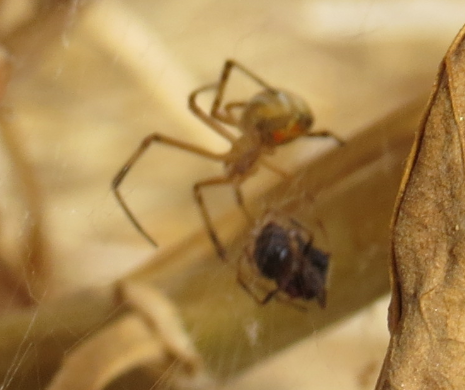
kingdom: Animalia
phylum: Arthropoda
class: Arachnida
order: Araneae
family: Theridiidae
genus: Latrodectus
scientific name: Latrodectus geometricus
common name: Brown widow spider
